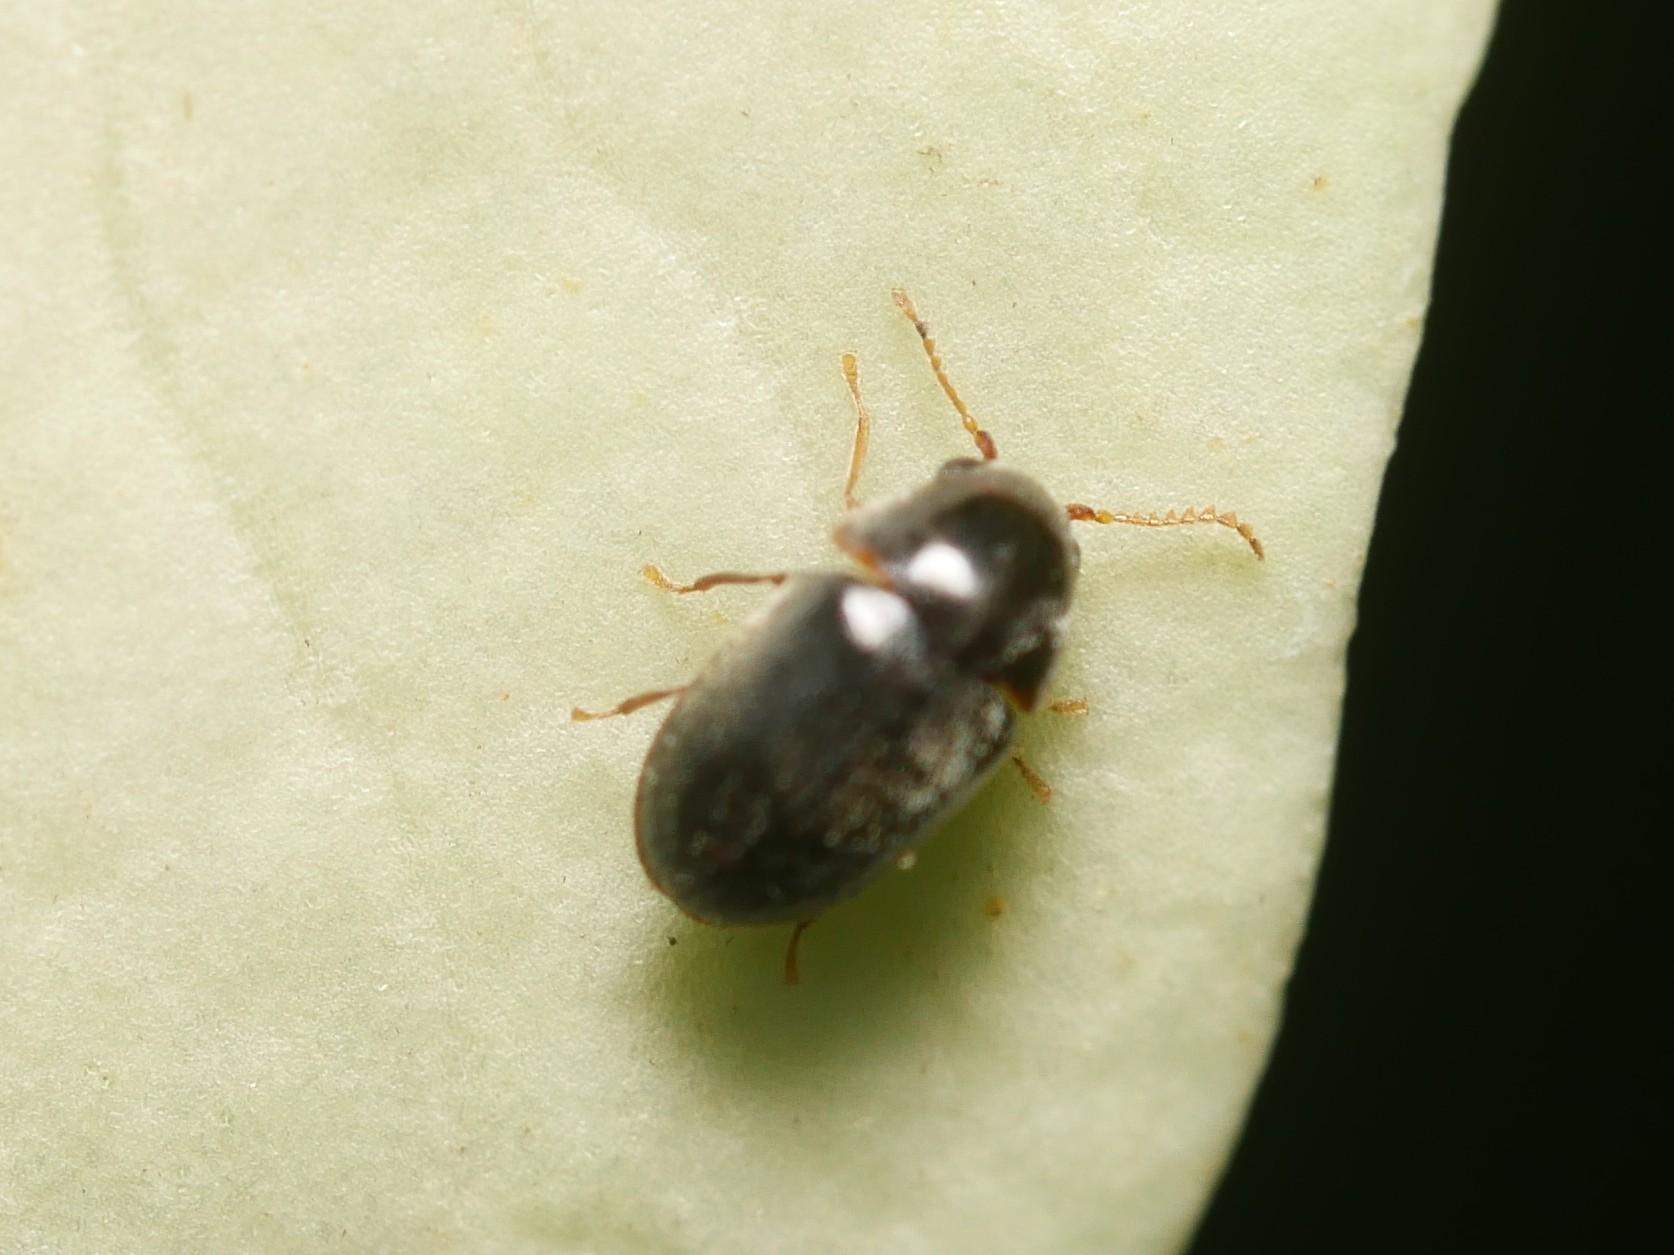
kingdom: Animalia
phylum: Arthropoda
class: Insecta
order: Coleoptera
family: Anobiidae
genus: Mesocoelopus
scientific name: Mesocoelopus niger
